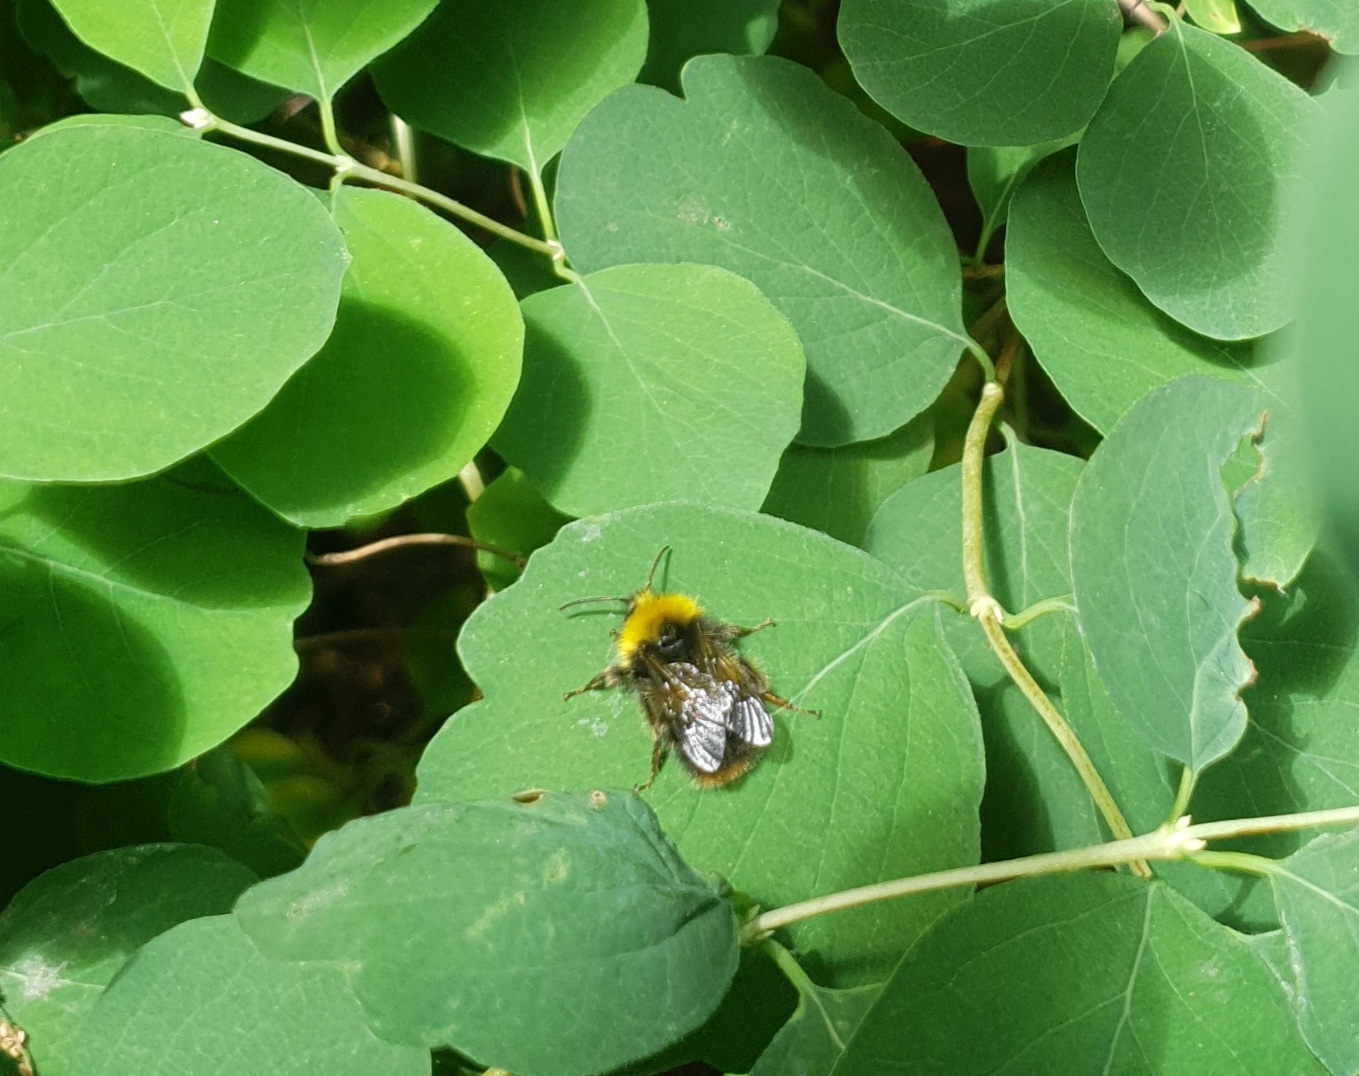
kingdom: Animalia
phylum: Arthropoda
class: Insecta
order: Hymenoptera
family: Apidae
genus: Bombus
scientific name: Bombus pratorum
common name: Early humble-bee
